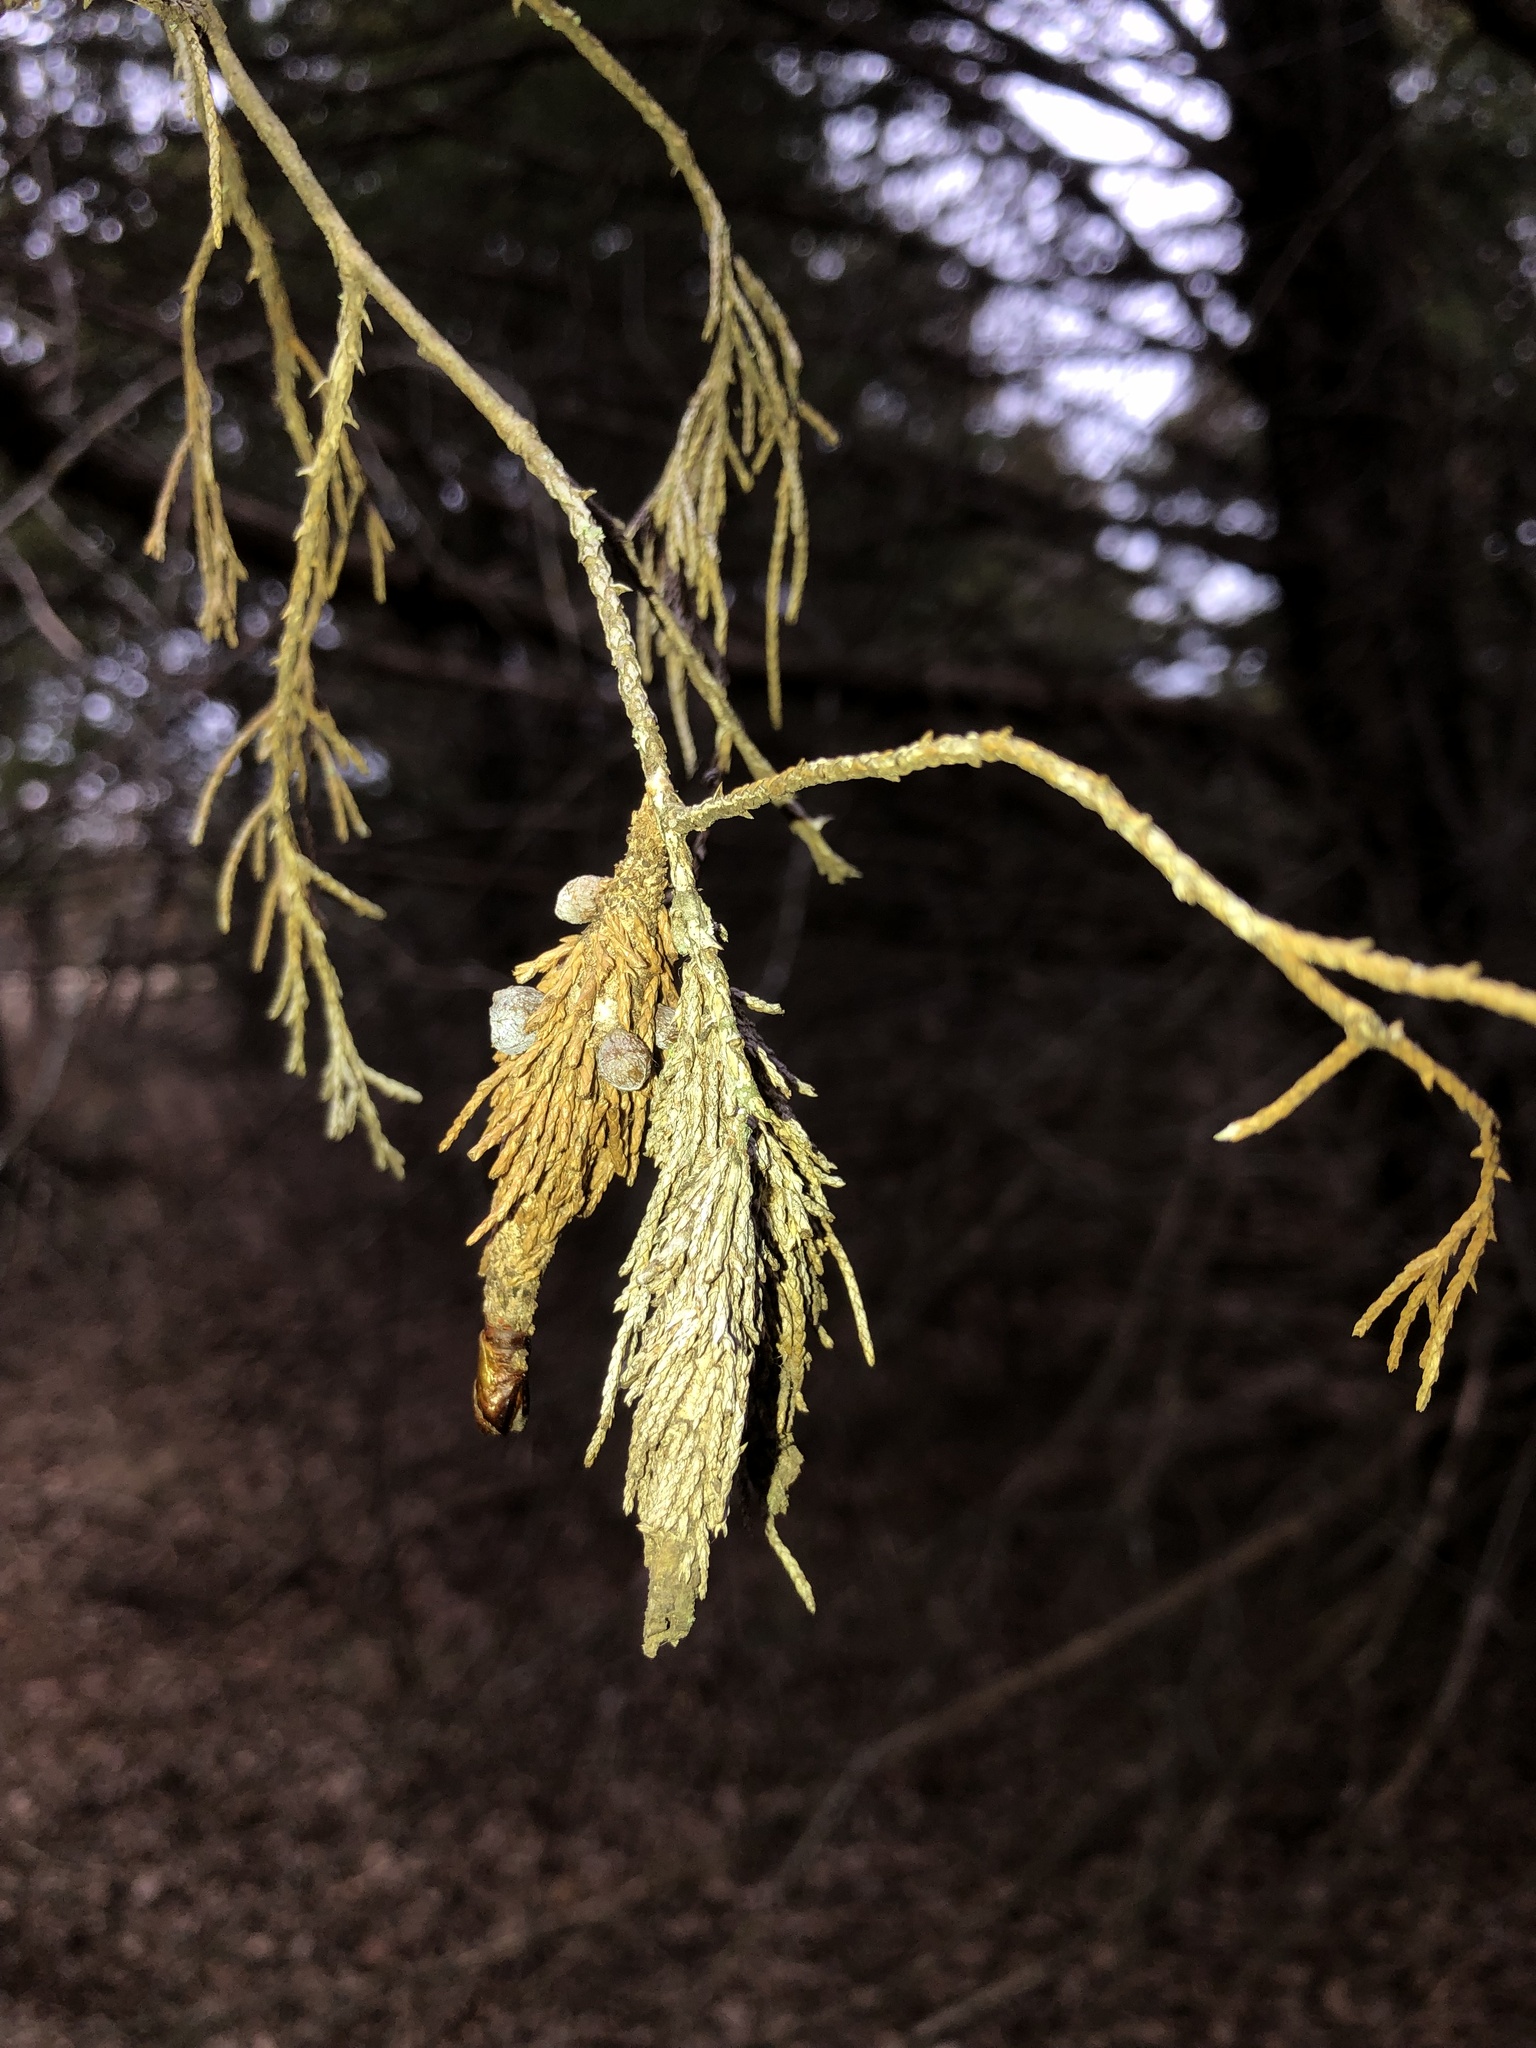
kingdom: Animalia
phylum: Arthropoda
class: Insecta
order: Lepidoptera
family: Psychidae
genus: Thyridopteryx
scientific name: Thyridopteryx ephemeraeformis
